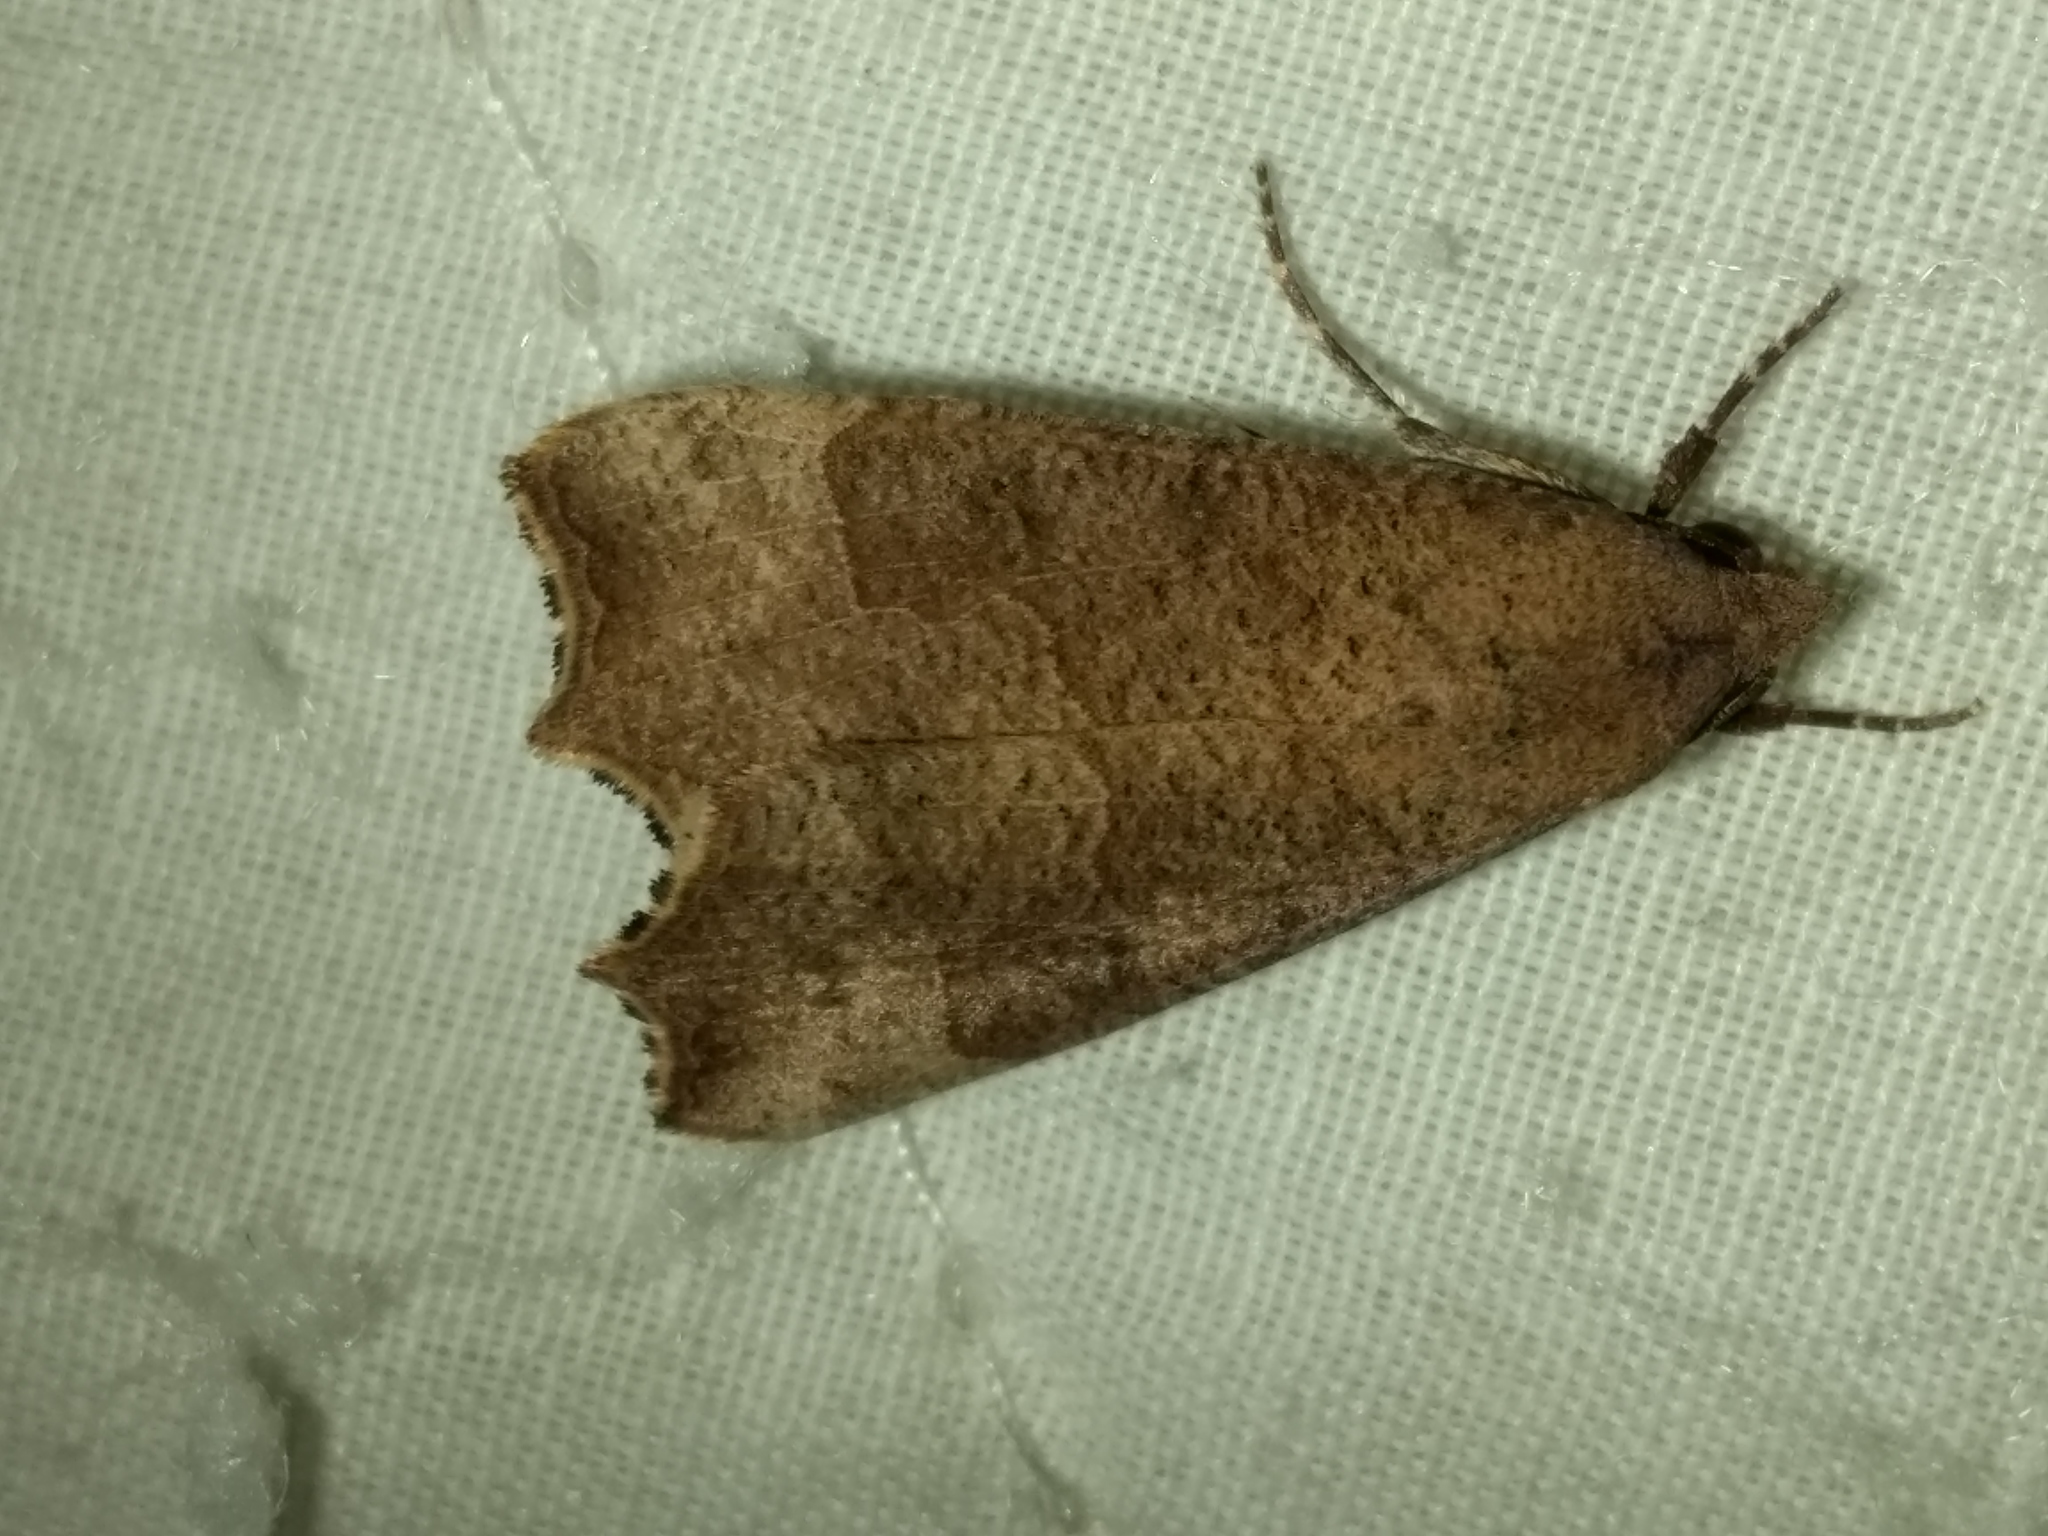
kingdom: Animalia
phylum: Arthropoda
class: Insecta
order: Lepidoptera
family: Erebidae
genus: Gonitis
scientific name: Gonitis involuta
